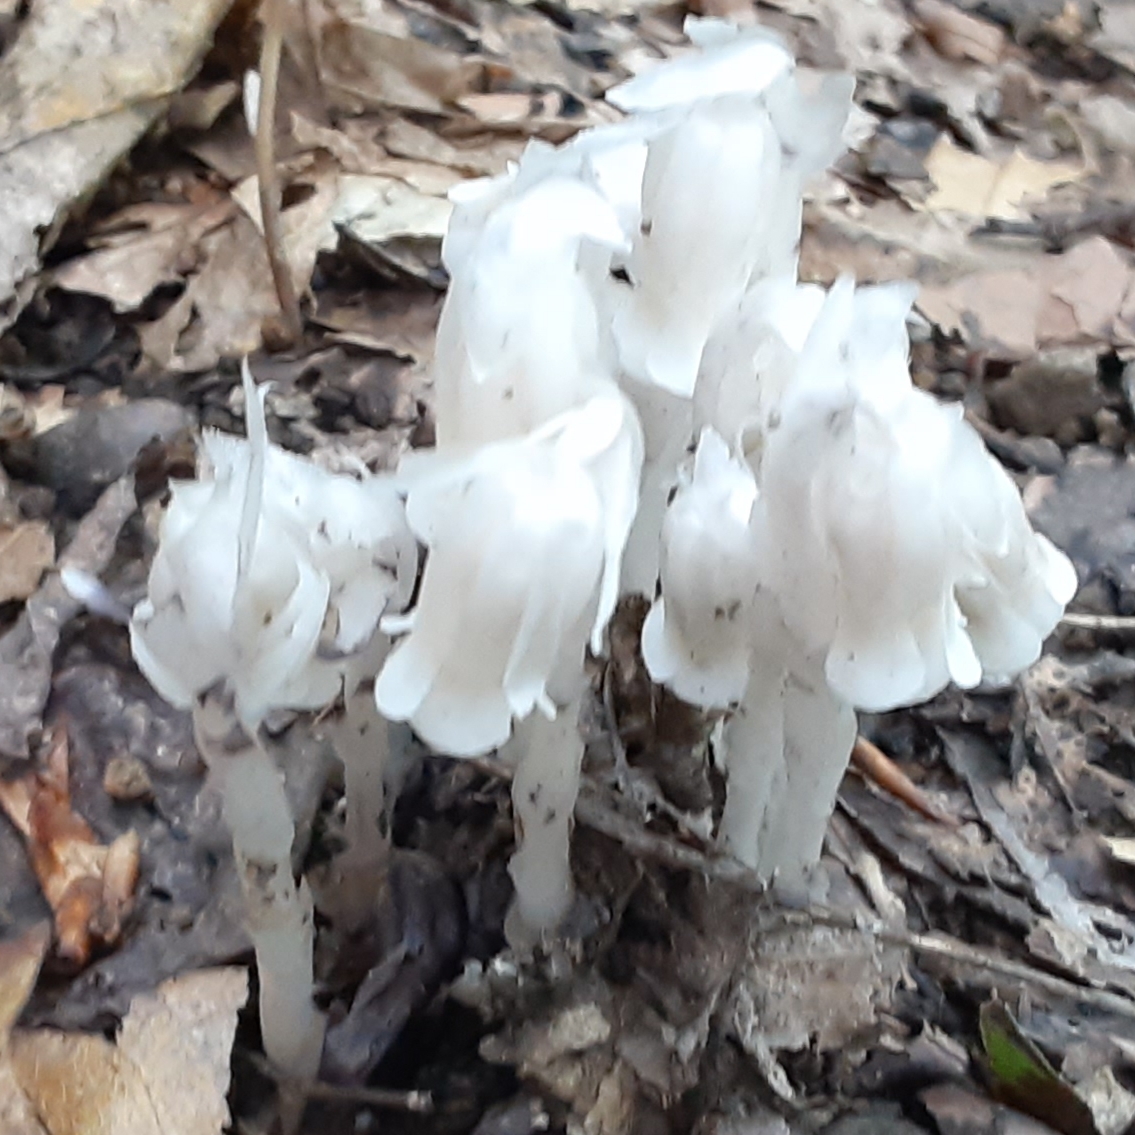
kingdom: Plantae
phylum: Tracheophyta
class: Magnoliopsida
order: Ericales
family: Ericaceae
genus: Monotropa
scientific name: Monotropa uniflora
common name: Convulsion root
